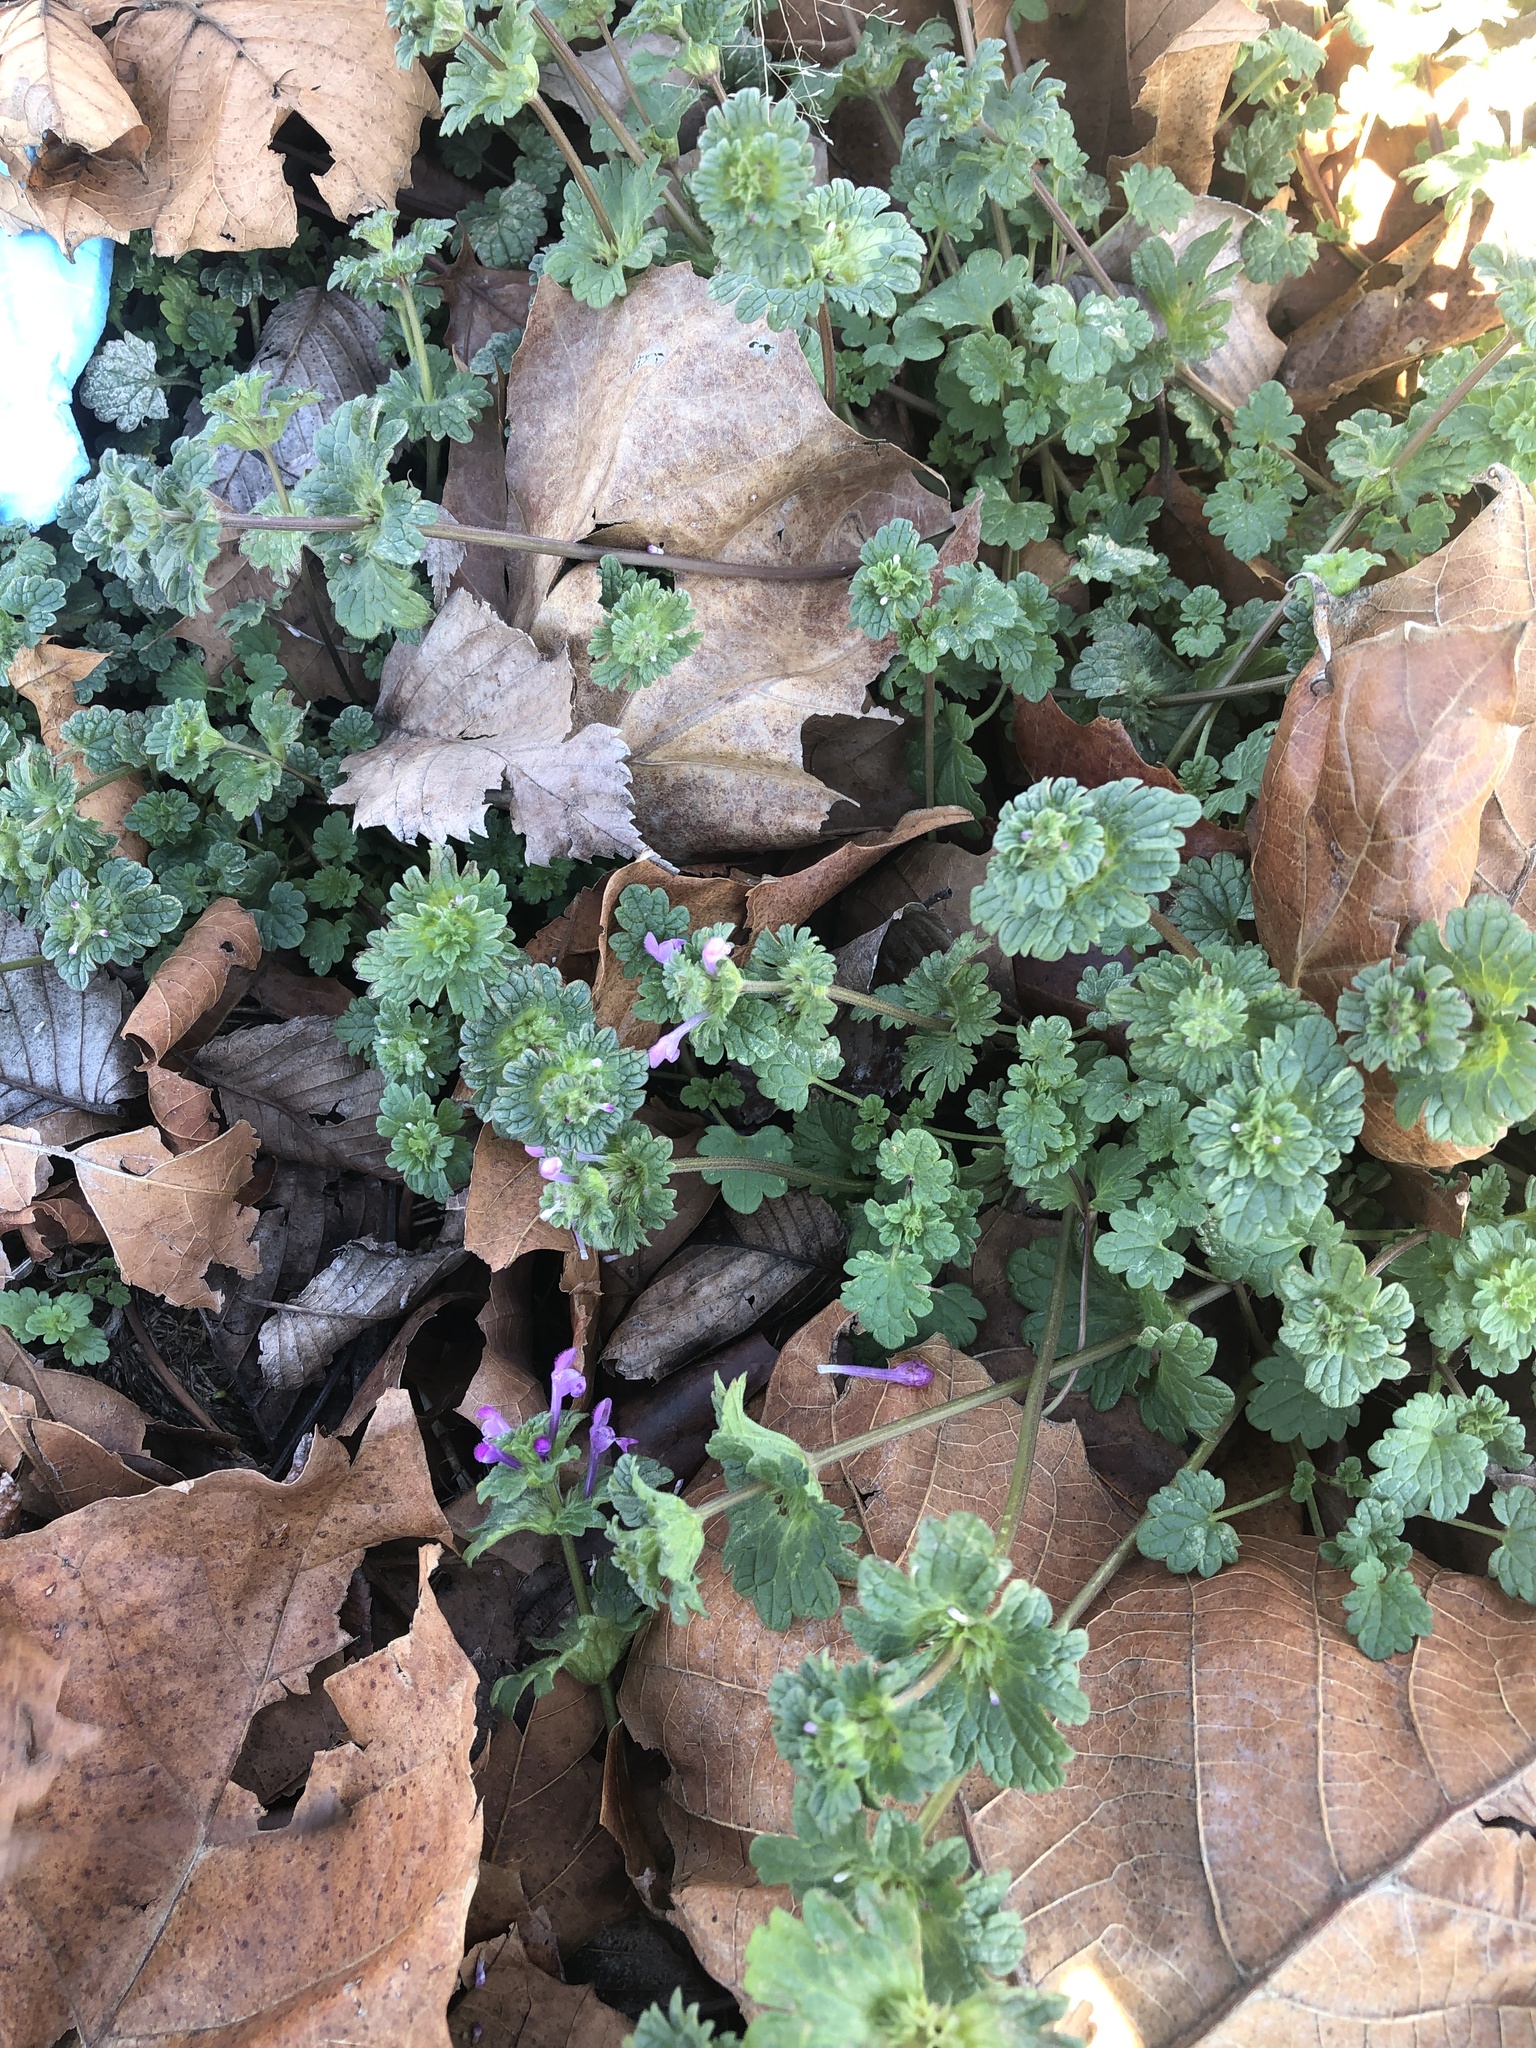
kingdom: Plantae
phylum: Tracheophyta
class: Magnoliopsida
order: Lamiales
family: Lamiaceae
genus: Lamium
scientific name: Lamium amplexicaule
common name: Henbit dead-nettle
